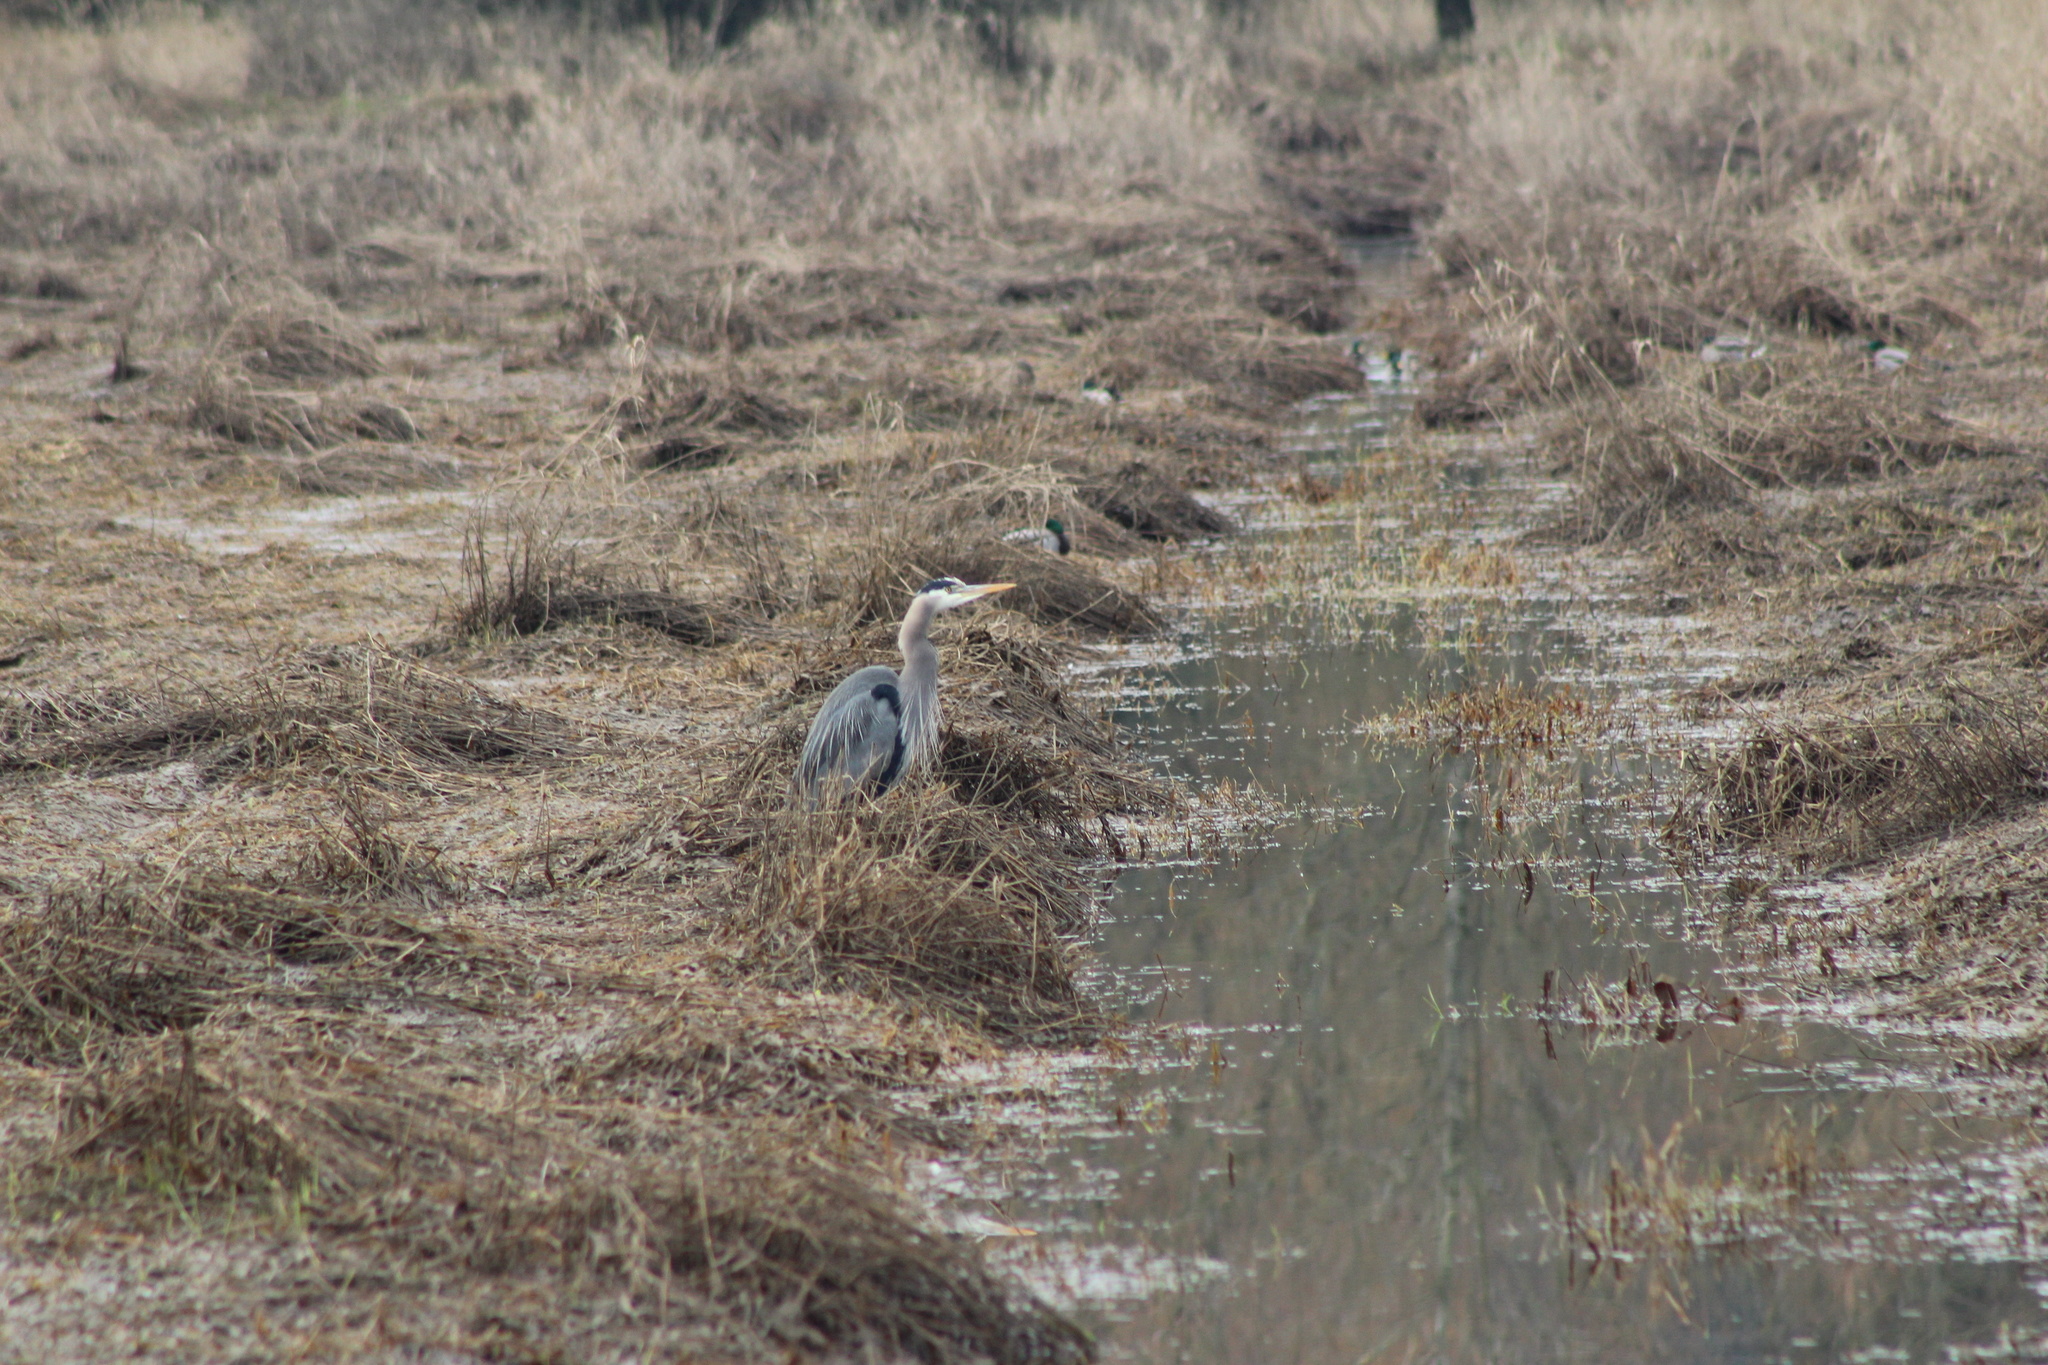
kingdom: Animalia
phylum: Chordata
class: Aves
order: Pelecaniformes
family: Ardeidae
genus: Ardea
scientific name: Ardea herodias
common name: Great blue heron
